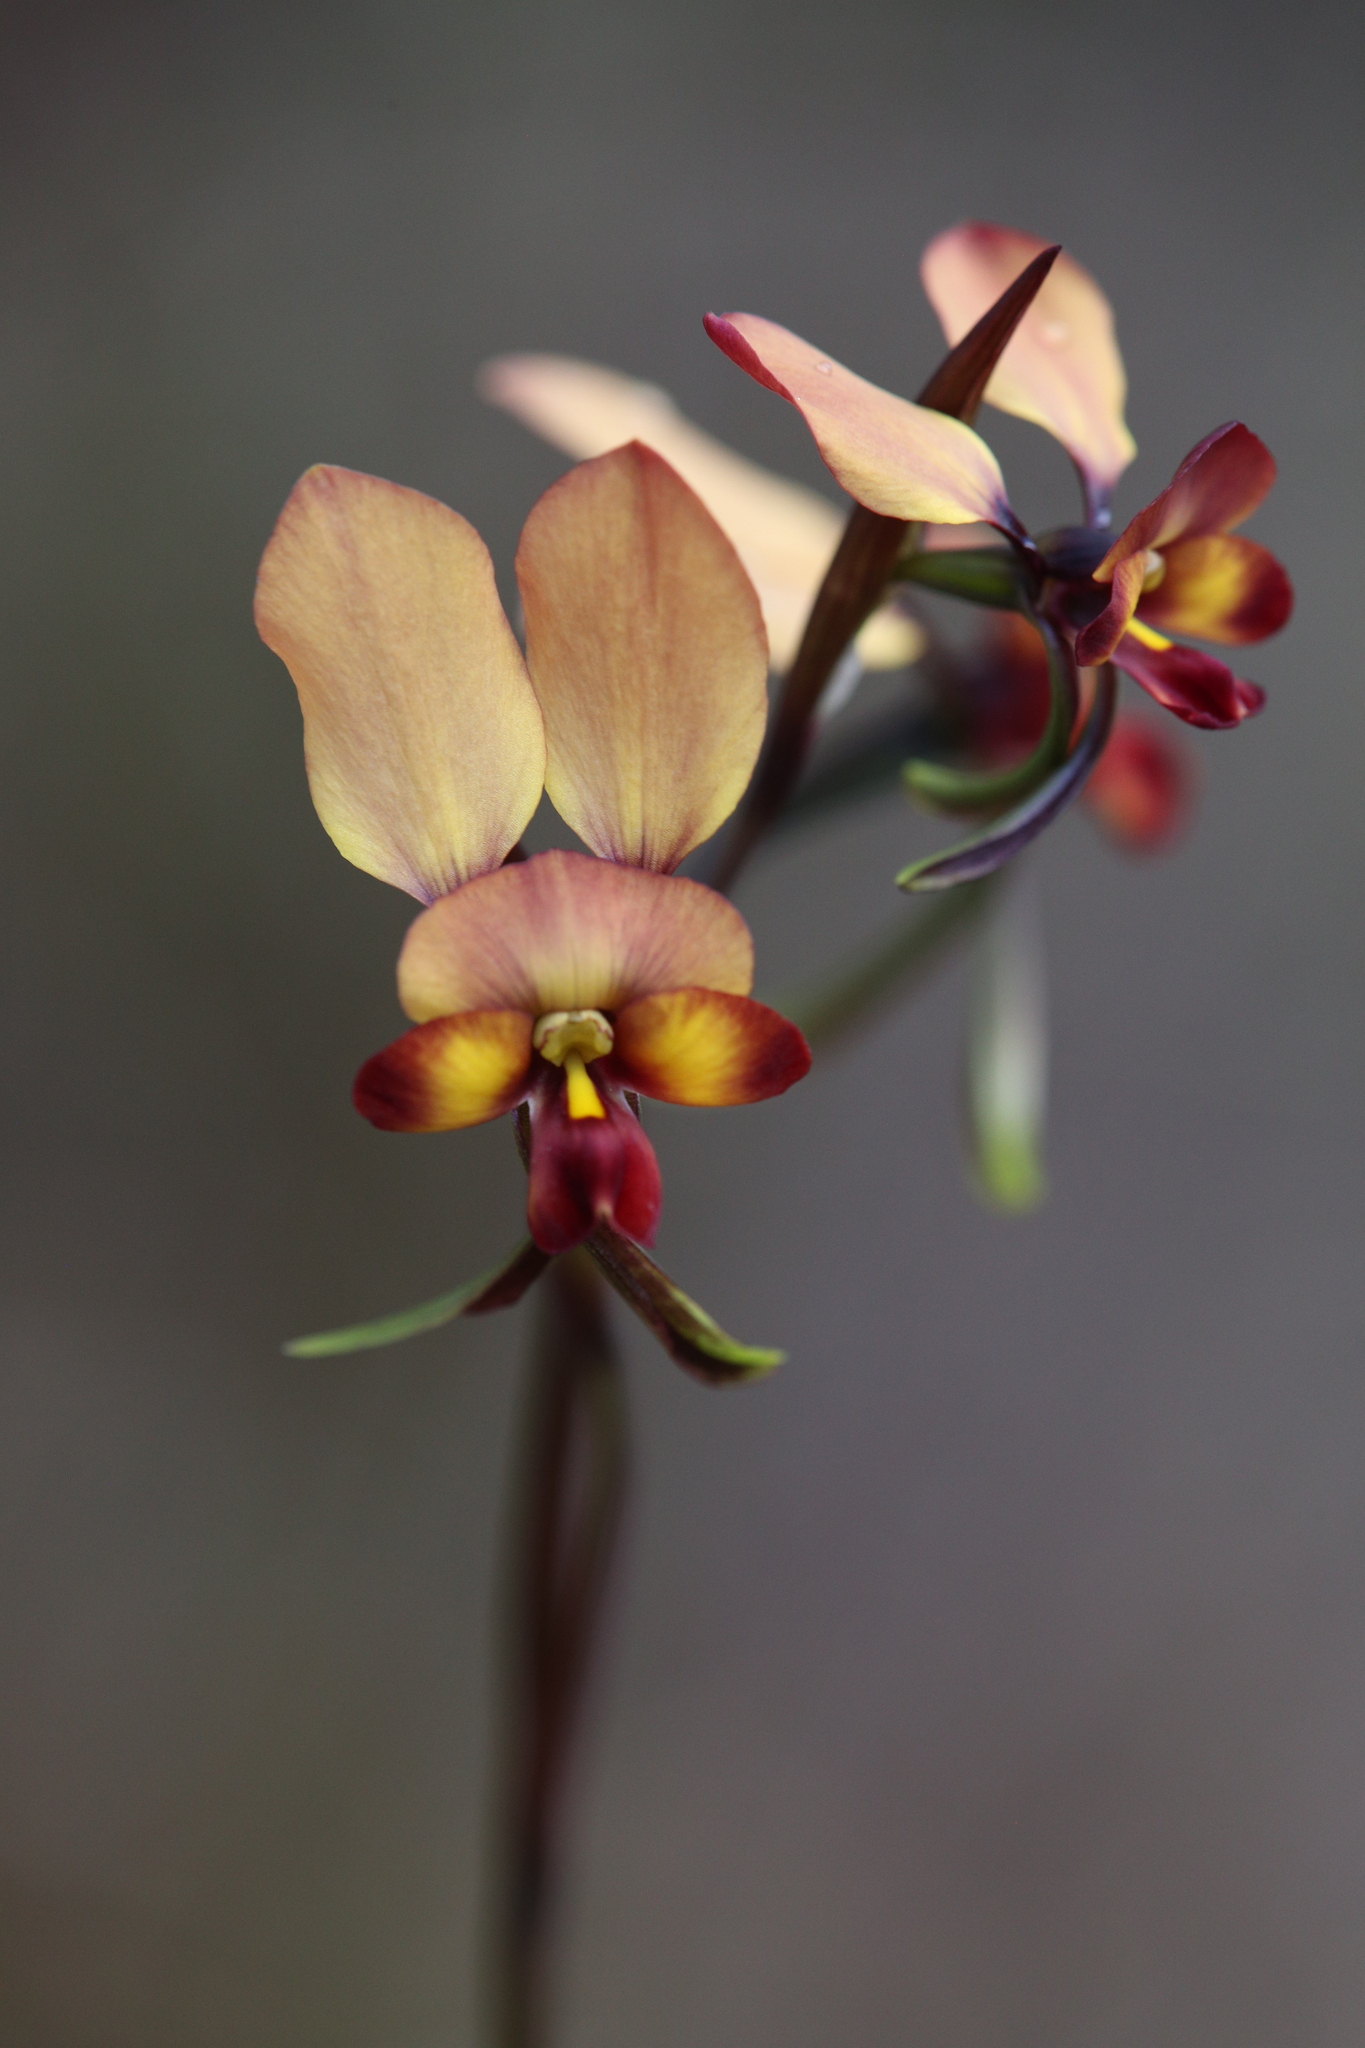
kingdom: Plantae
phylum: Tracheophyta
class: Liliopsida
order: Asparagales
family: Orchidaceae
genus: Diuris
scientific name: Diuris cruenta
